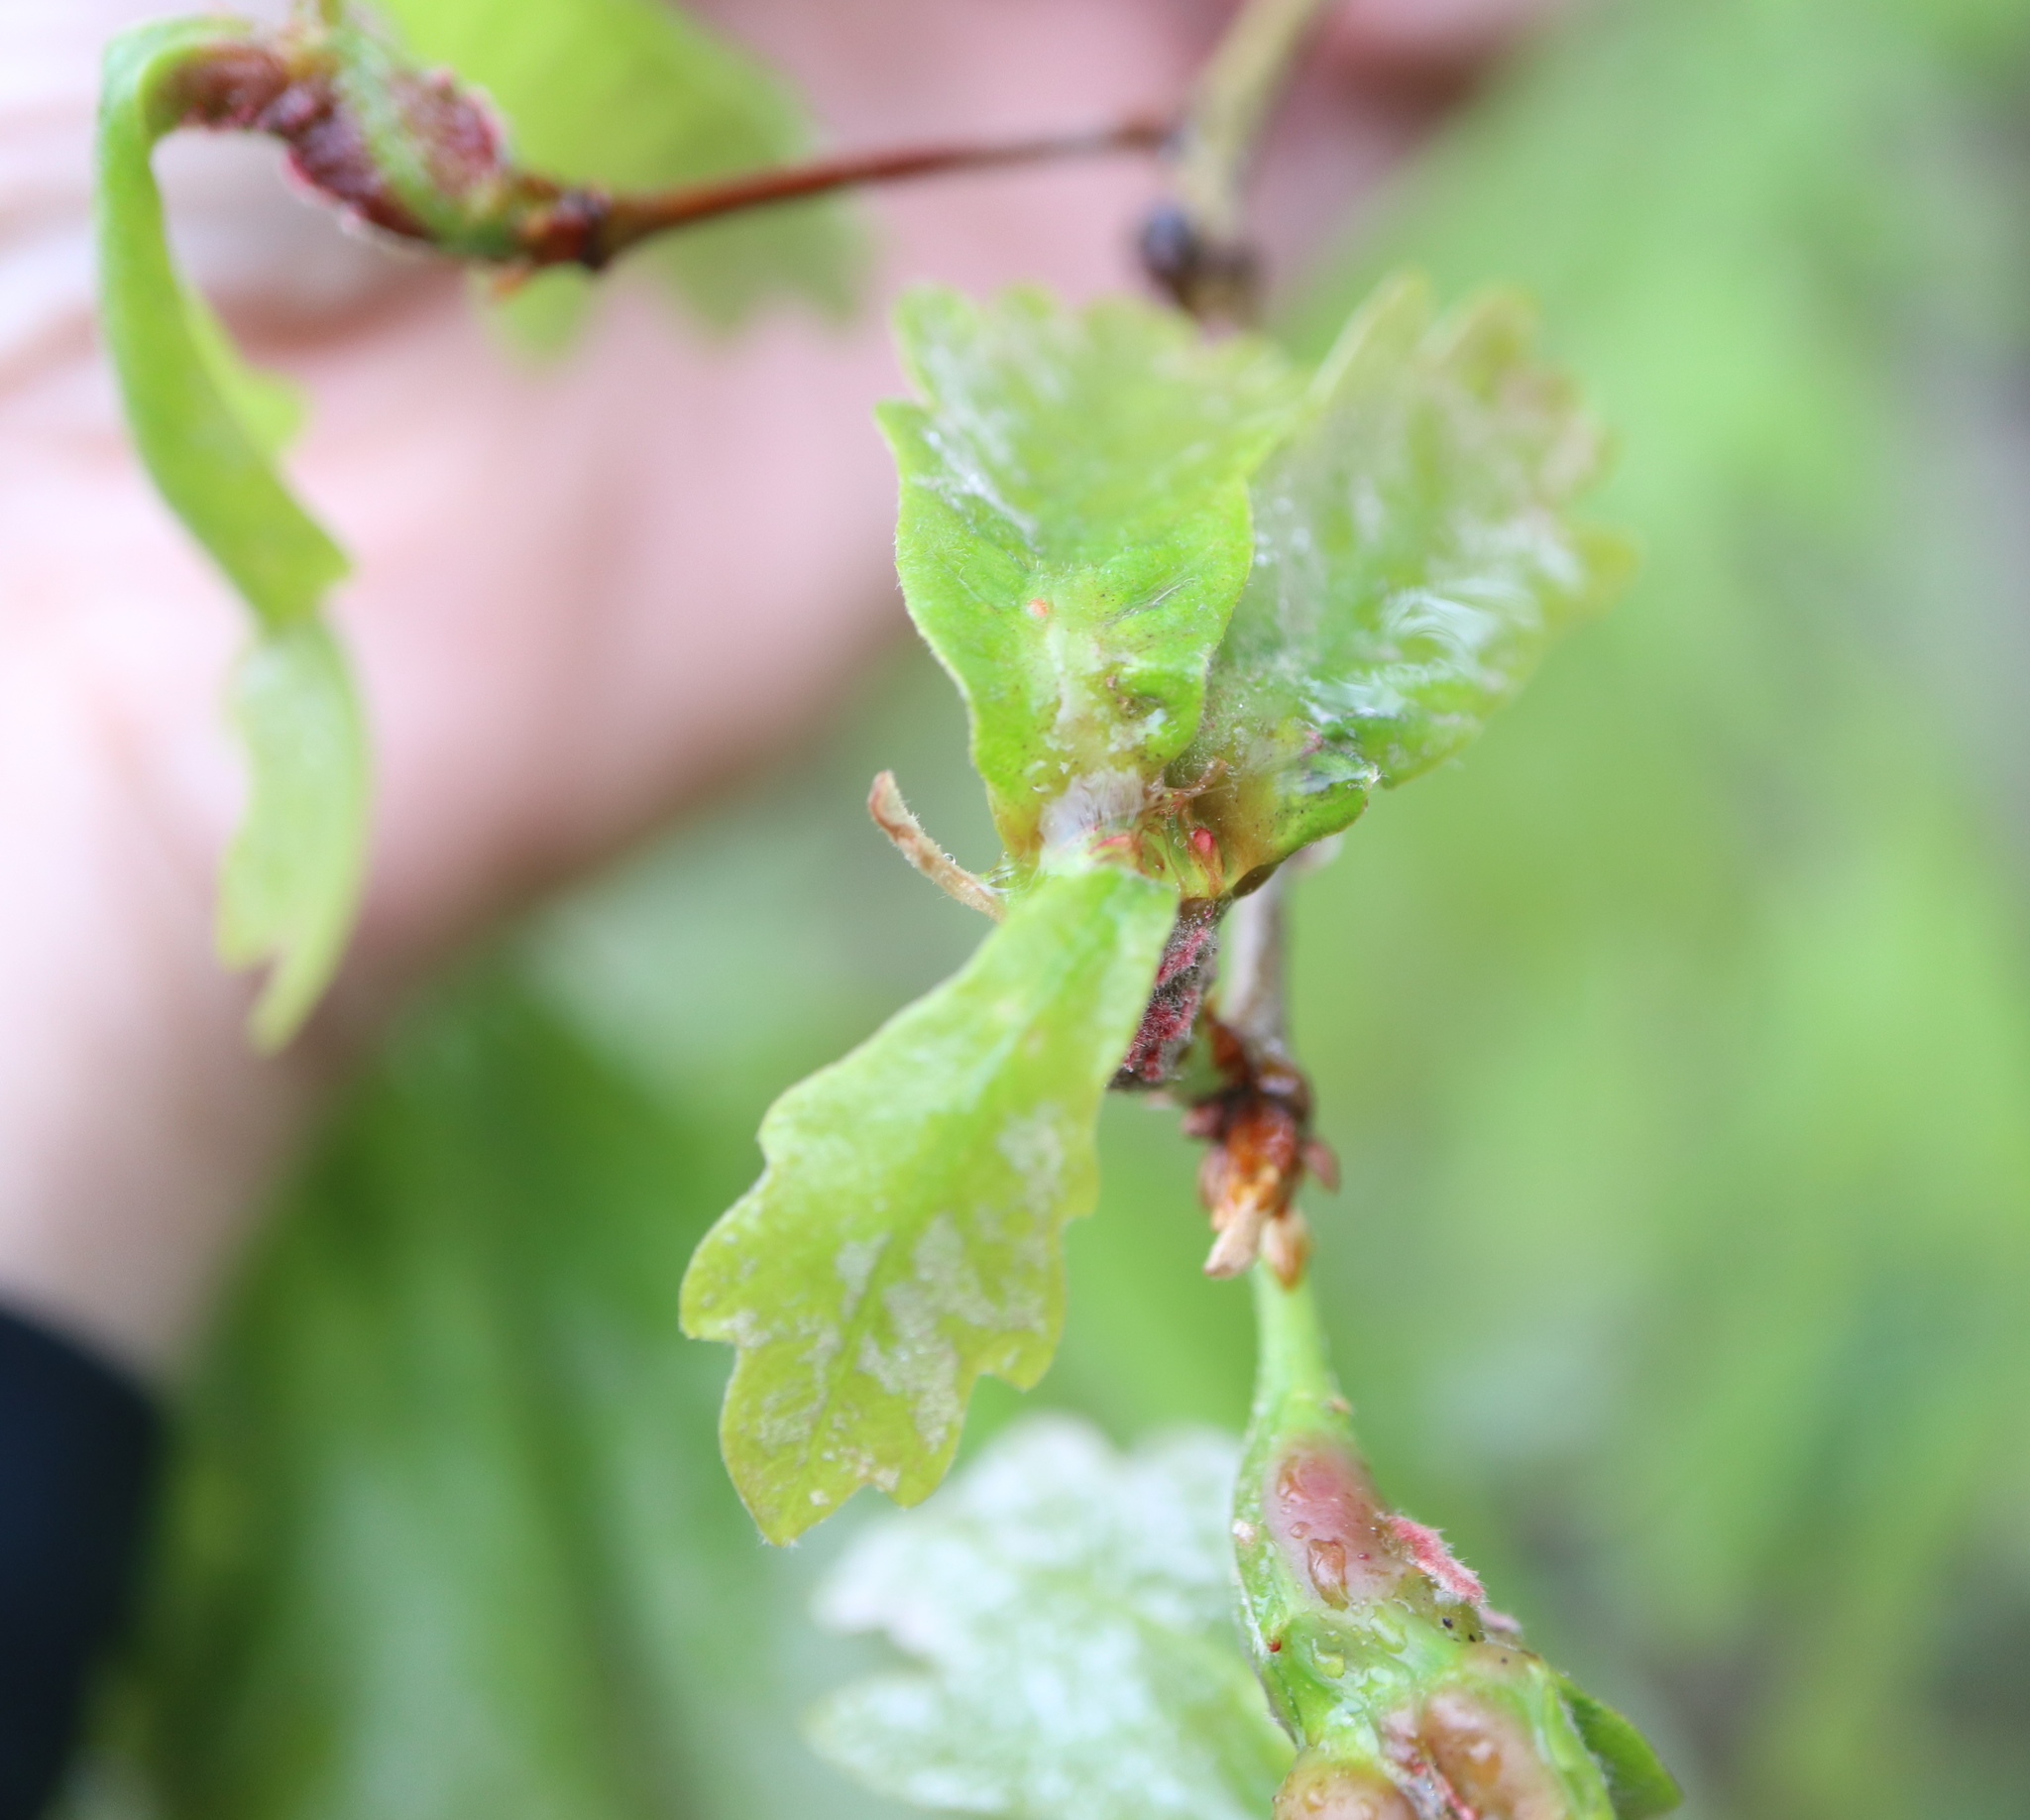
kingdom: Animalia
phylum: Arthropoda
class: Insecta
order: Hymenoptera
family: Cynipidae
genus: Neuroterus
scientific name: Neuroterus quercusbaccarum
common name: Common spangle gall
